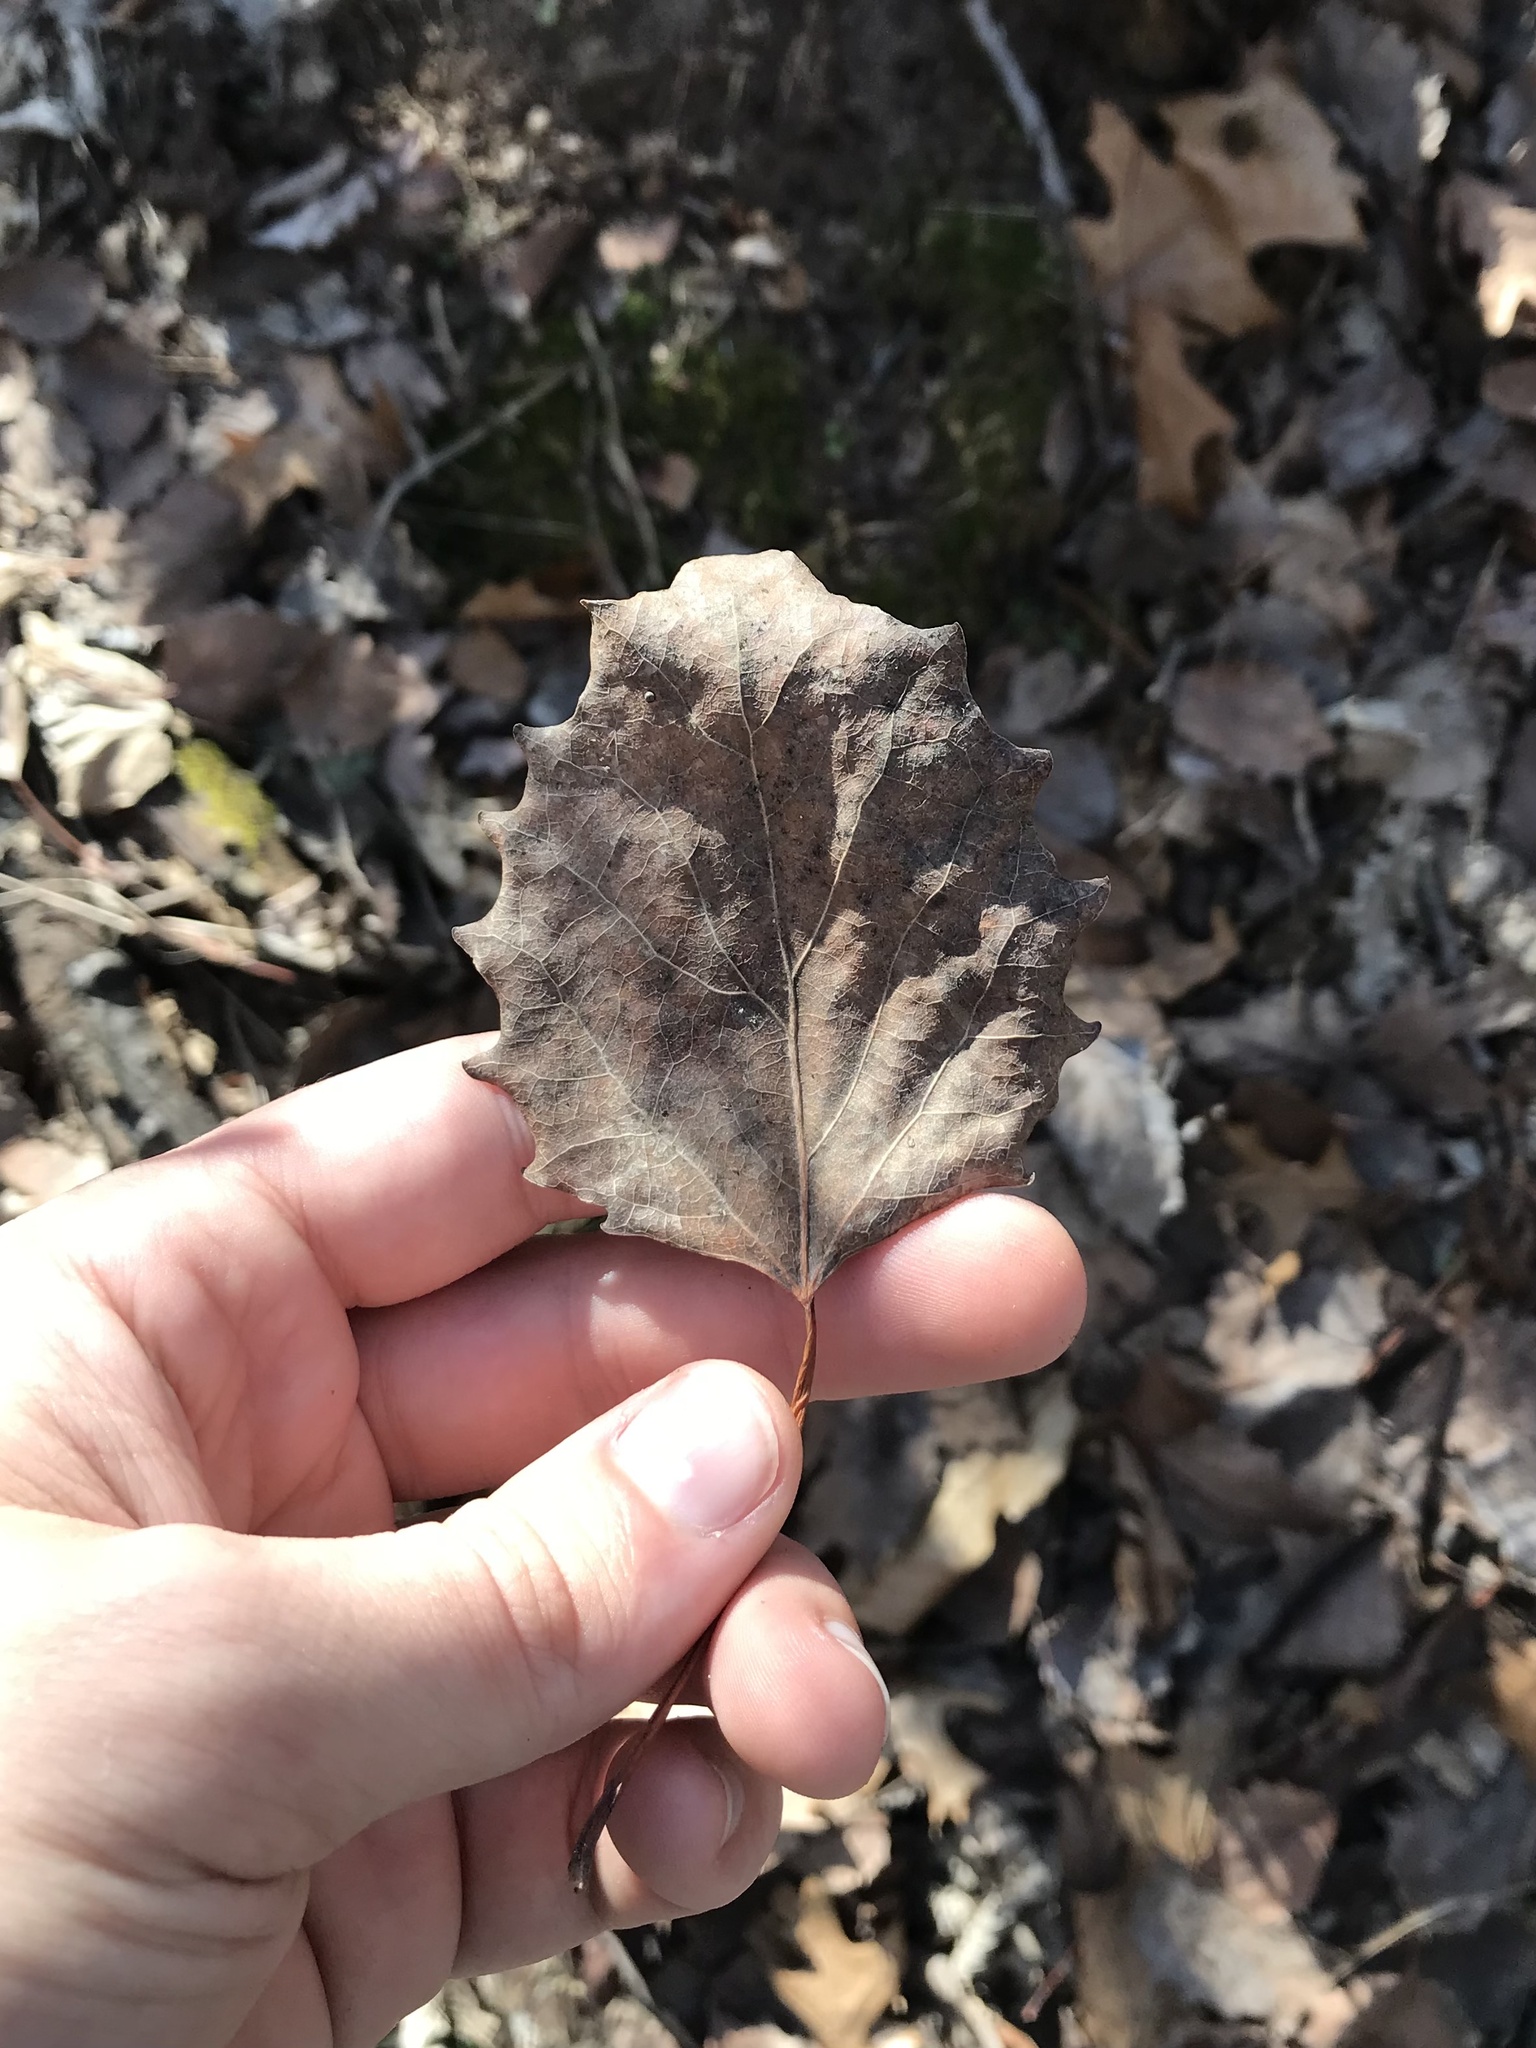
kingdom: Plantae
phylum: Tracheophyta
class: Magnoliopsida
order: Malpighiales
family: Salicaceae
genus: Populus
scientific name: Populus grandidentata
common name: Bigtooth aspen
